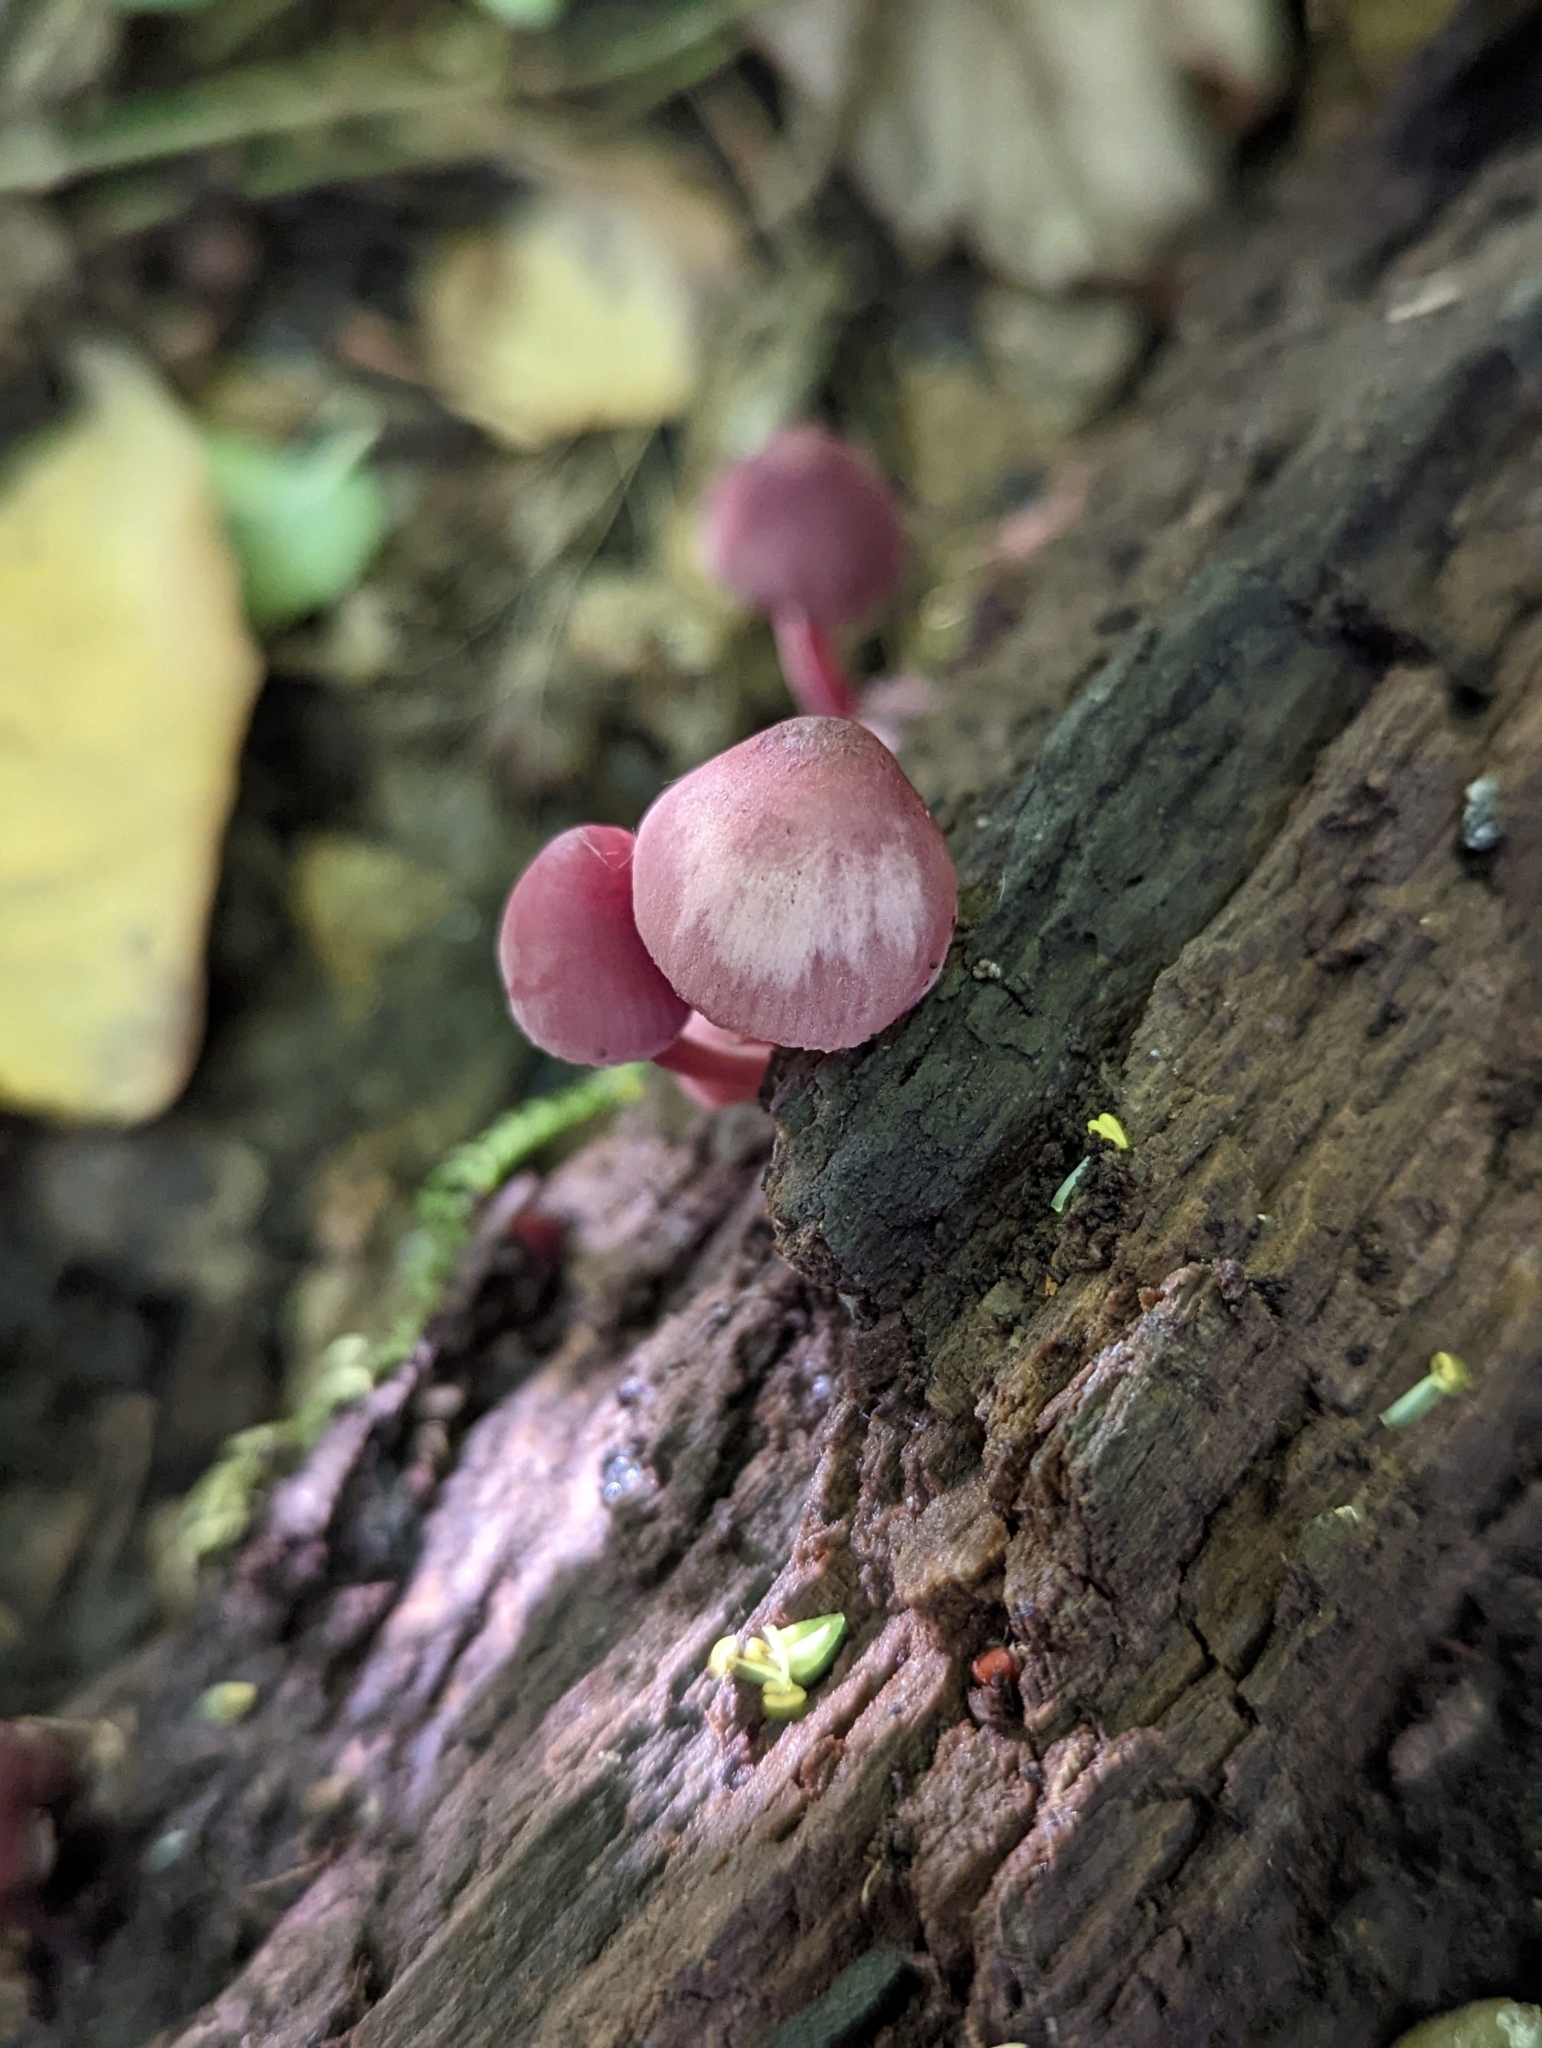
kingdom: Fungi
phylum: Basidiomycota
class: Agaricomycetes
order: Agaricales
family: Mycenaceae
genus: Mycena
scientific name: Mycena haematopus
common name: Burgundydrop bonnet
